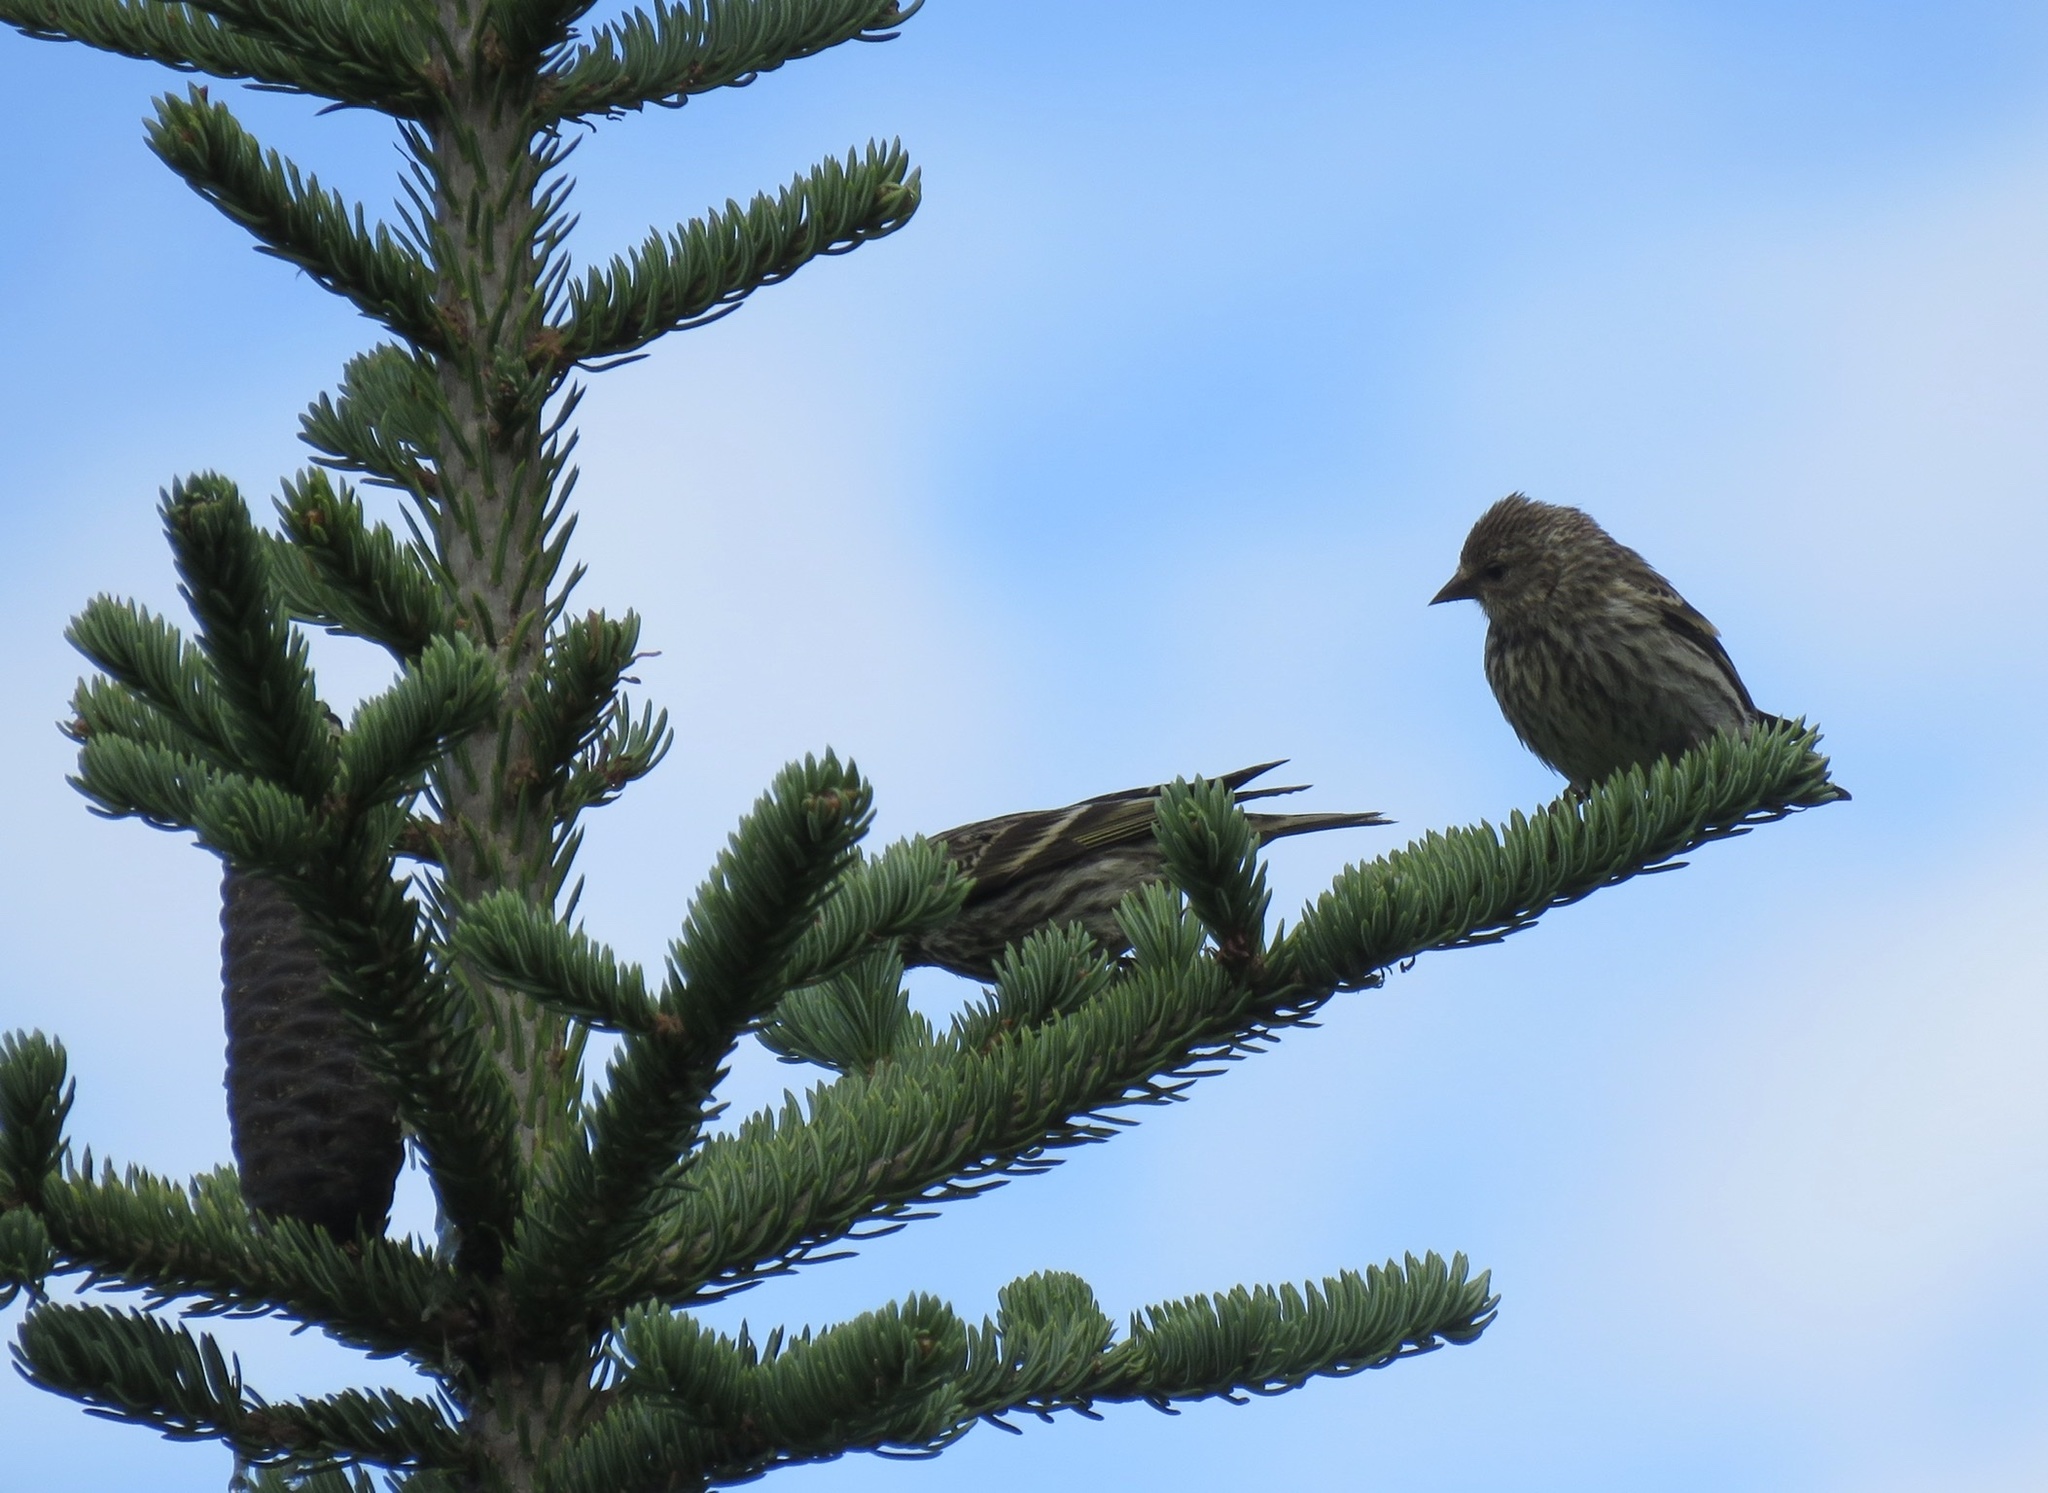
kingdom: Animalia
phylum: Chordata
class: Aves
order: Passeriformes
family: Fringillidae
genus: Spinus
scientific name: Spinus pinus
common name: Pine siskin
